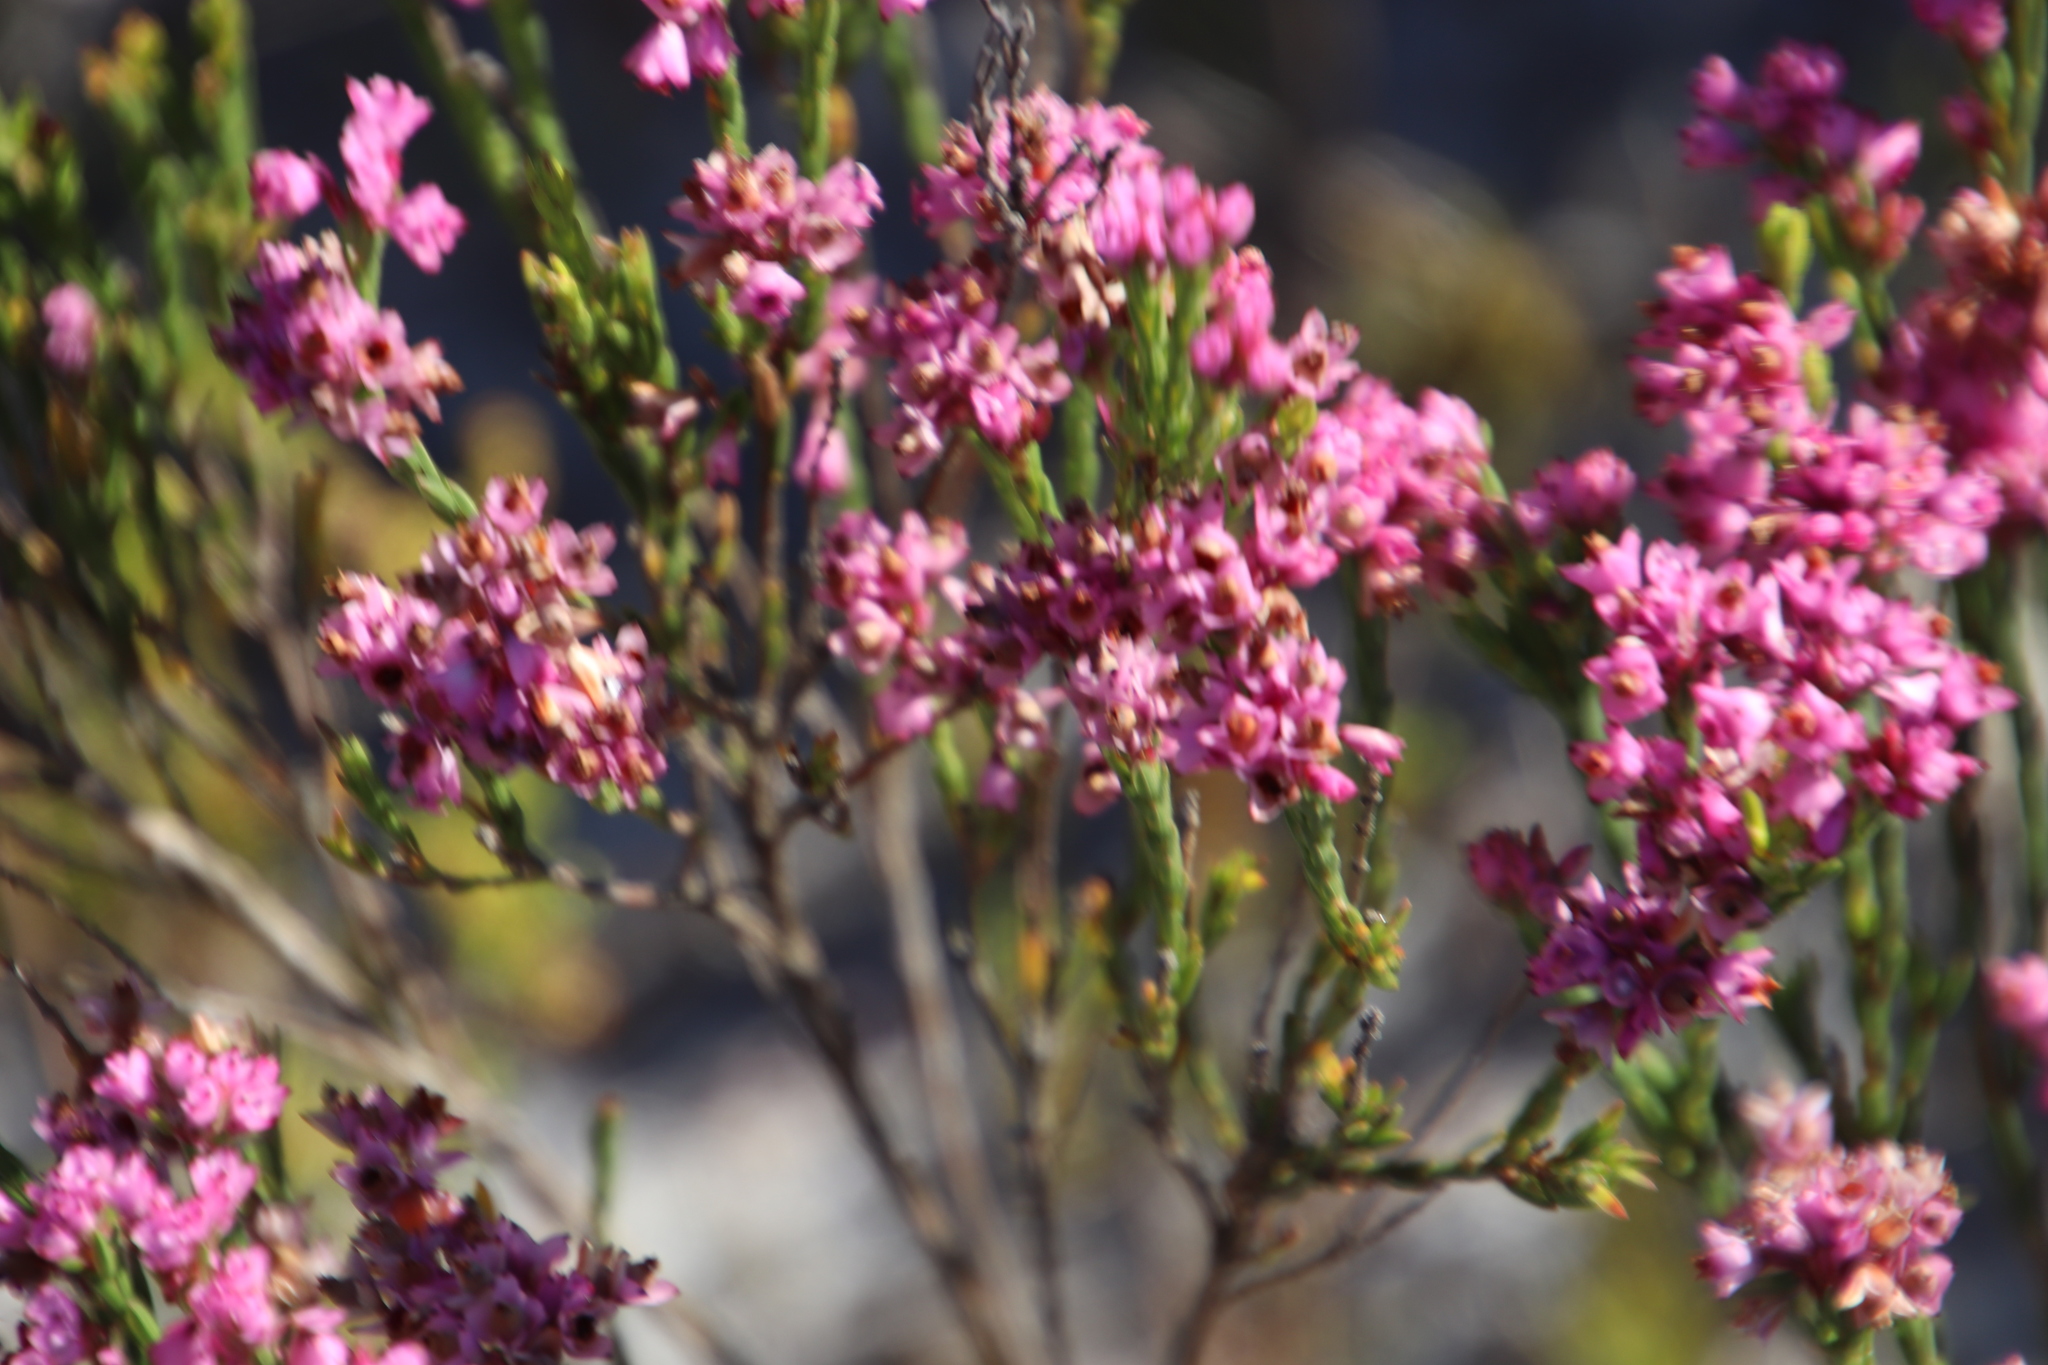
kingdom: Plantae
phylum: Tracheophyta
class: Magnoliopsida
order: Ericales
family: Ericaceae
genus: Erica
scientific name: Erica corifolia
